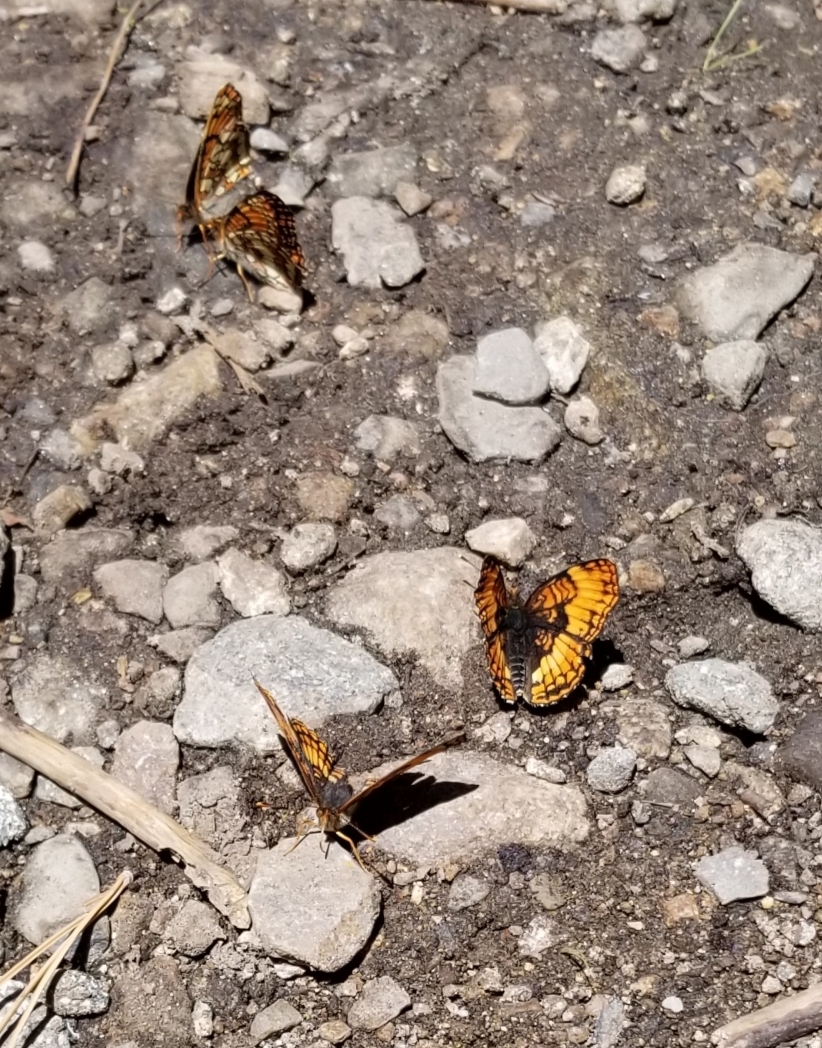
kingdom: Animalia
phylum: Arthropoda
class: Insecta
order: Lepidoptera
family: Nymphalidae
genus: Chlosyne
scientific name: Chlosyne hoffmanni
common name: Hoffmann's checkerspot
